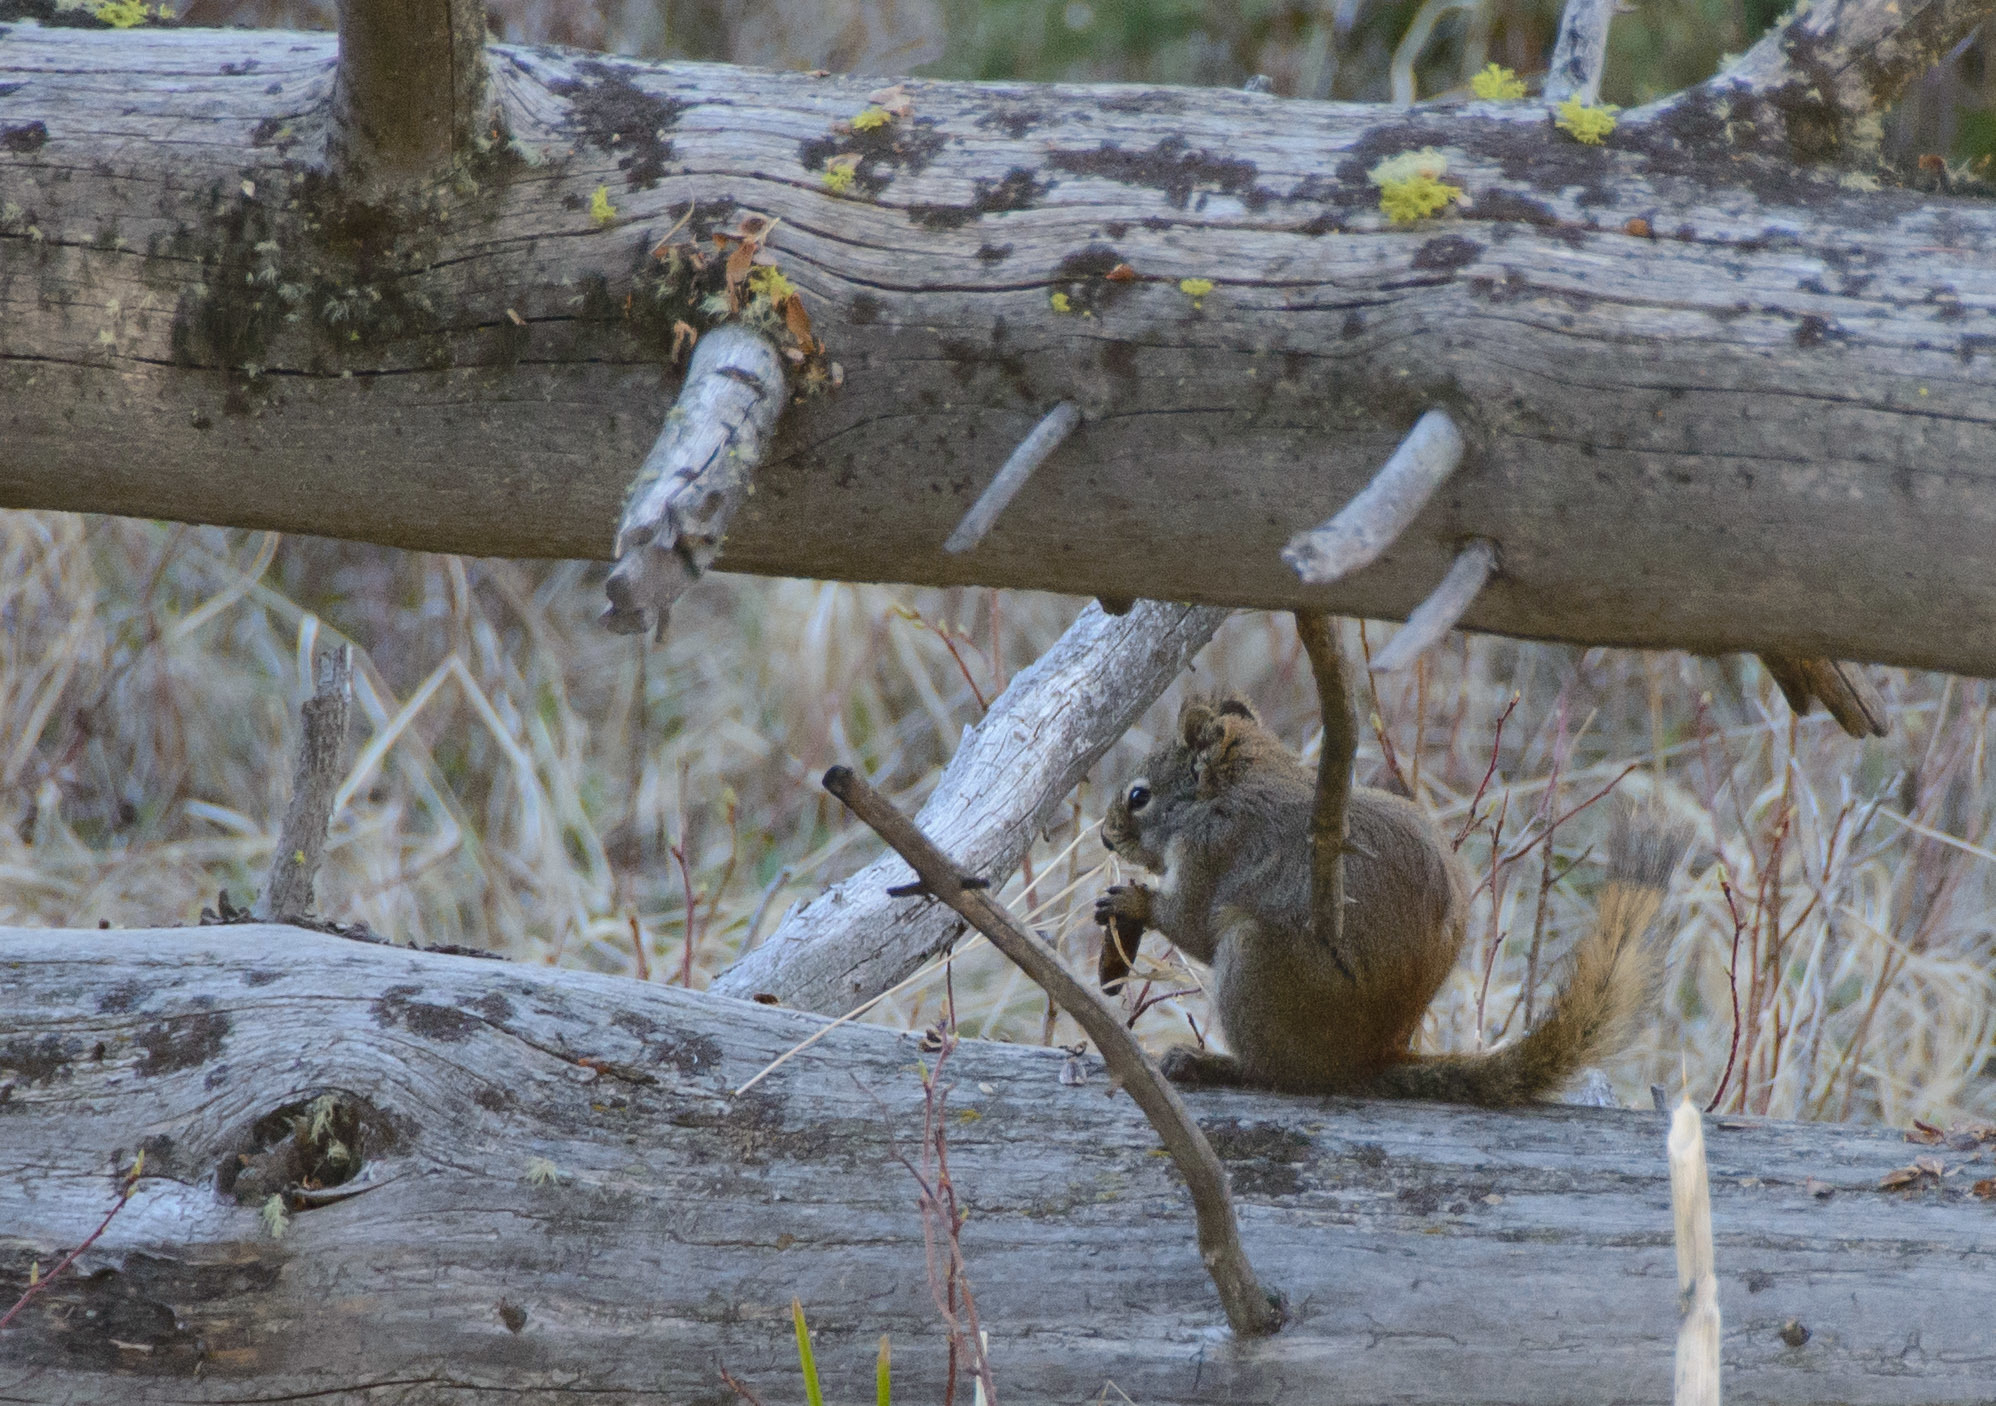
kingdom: Animalia
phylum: Chordata
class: Mammalia
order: Rodentia
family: Sciuridae
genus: Tamiasciurus
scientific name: Tamiasciurus hudsonicus
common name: Red squirrel
